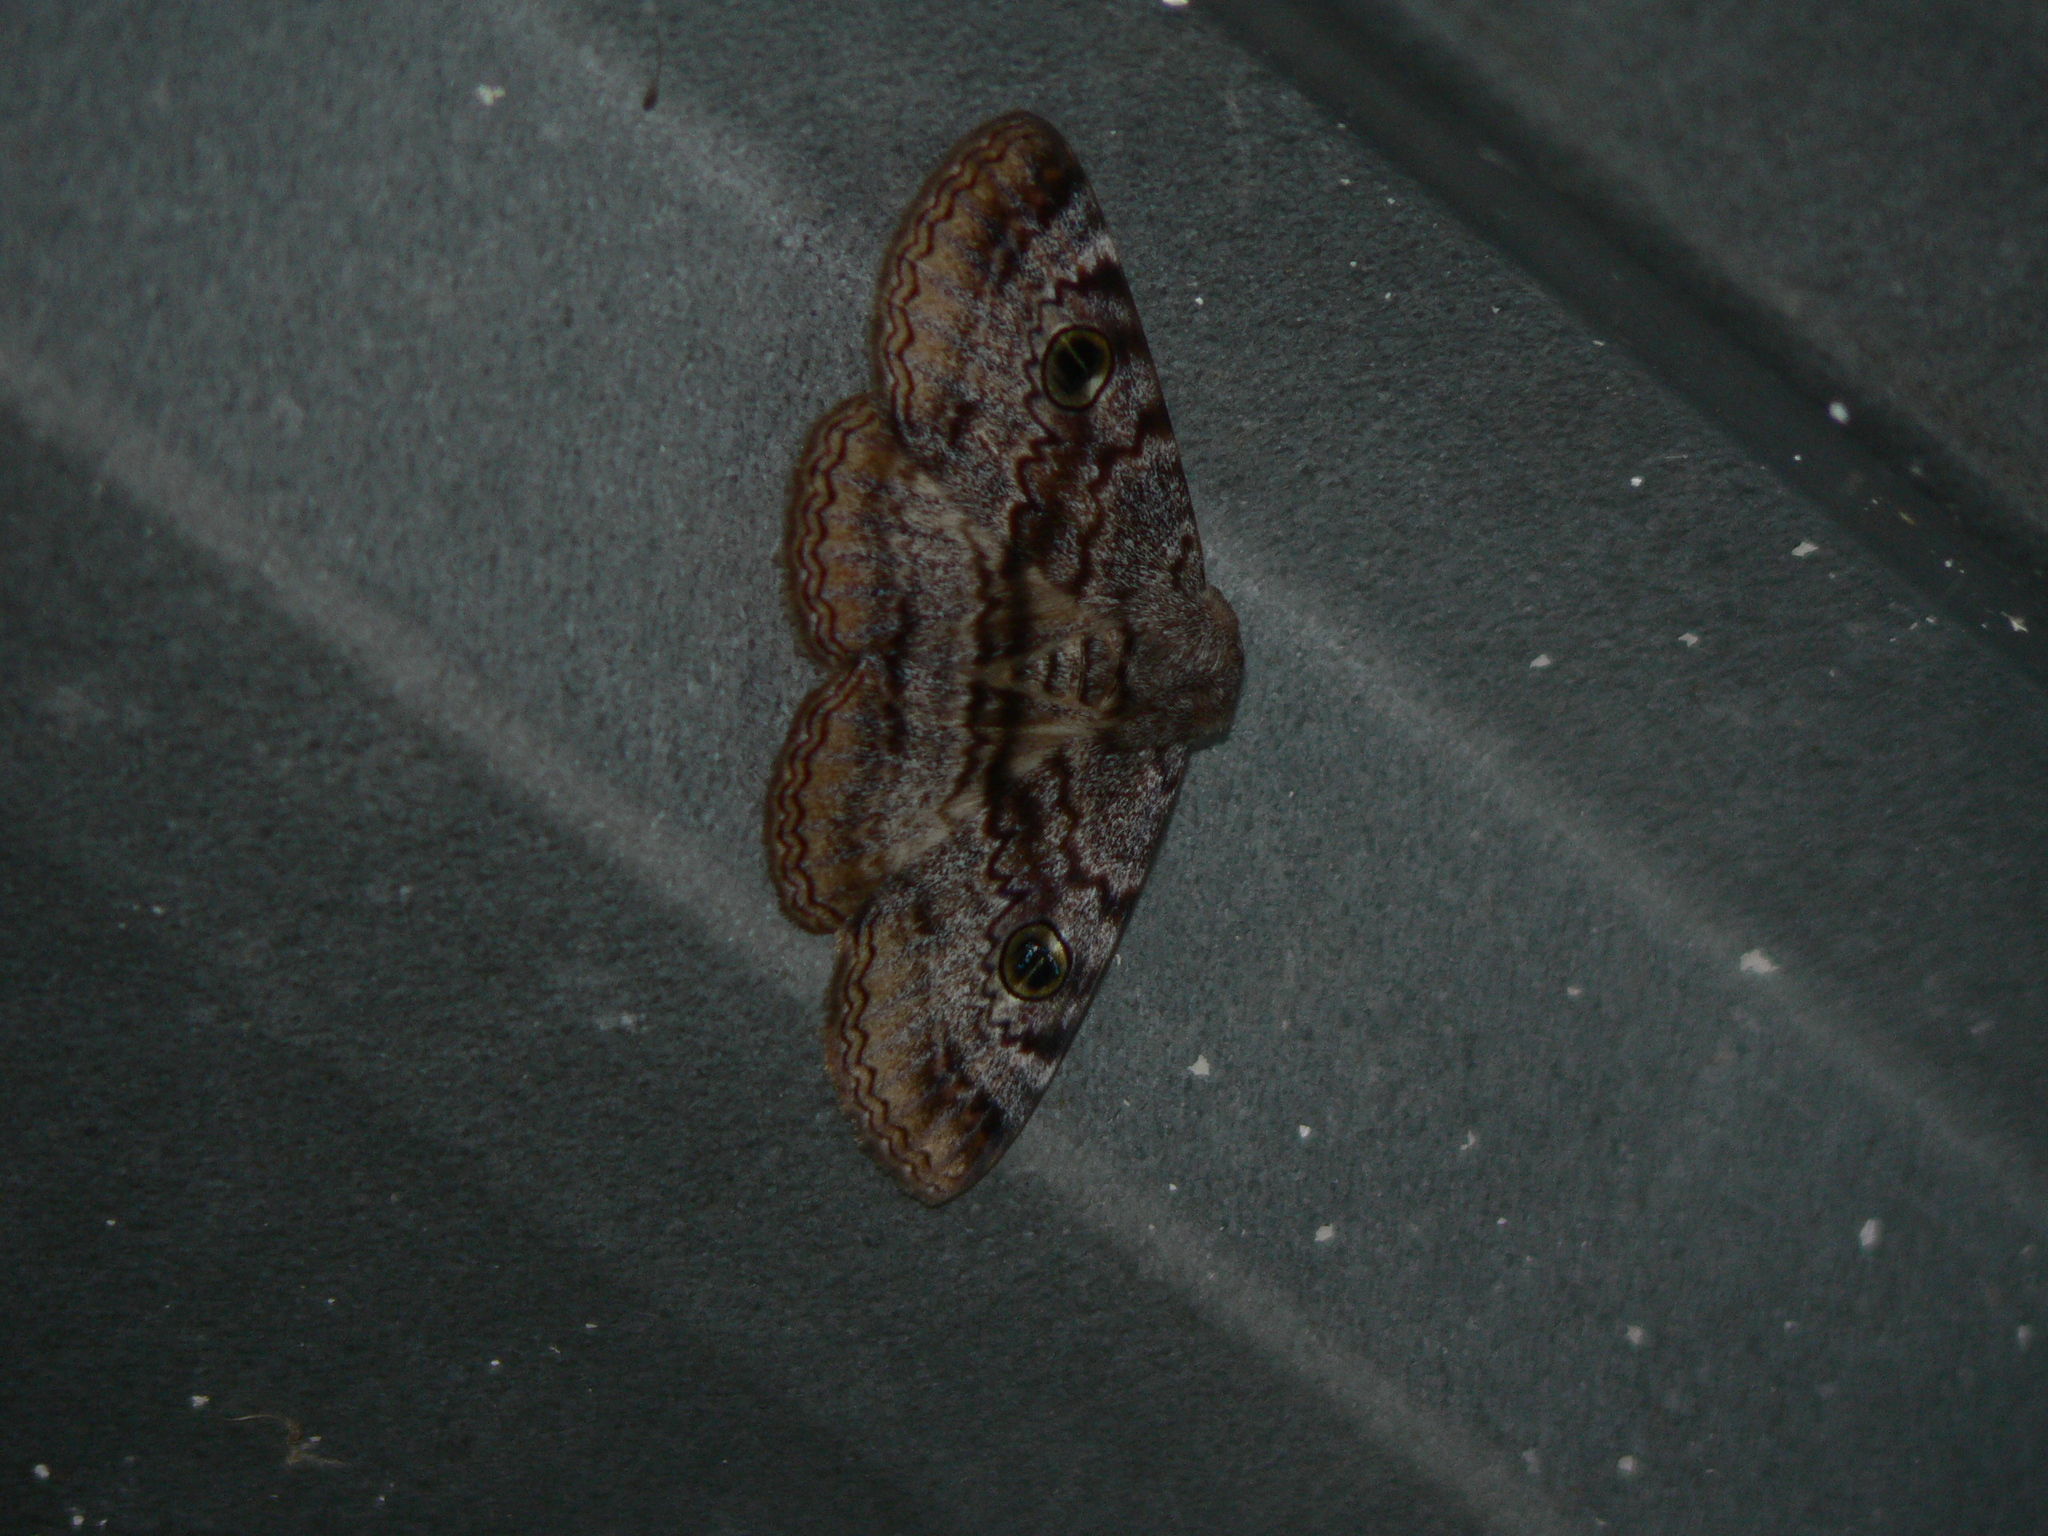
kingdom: Animalia
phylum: Arthropoda
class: Insecta
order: Lepidoptera
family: Erebidae
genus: Donuca
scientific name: Donuca castalia
